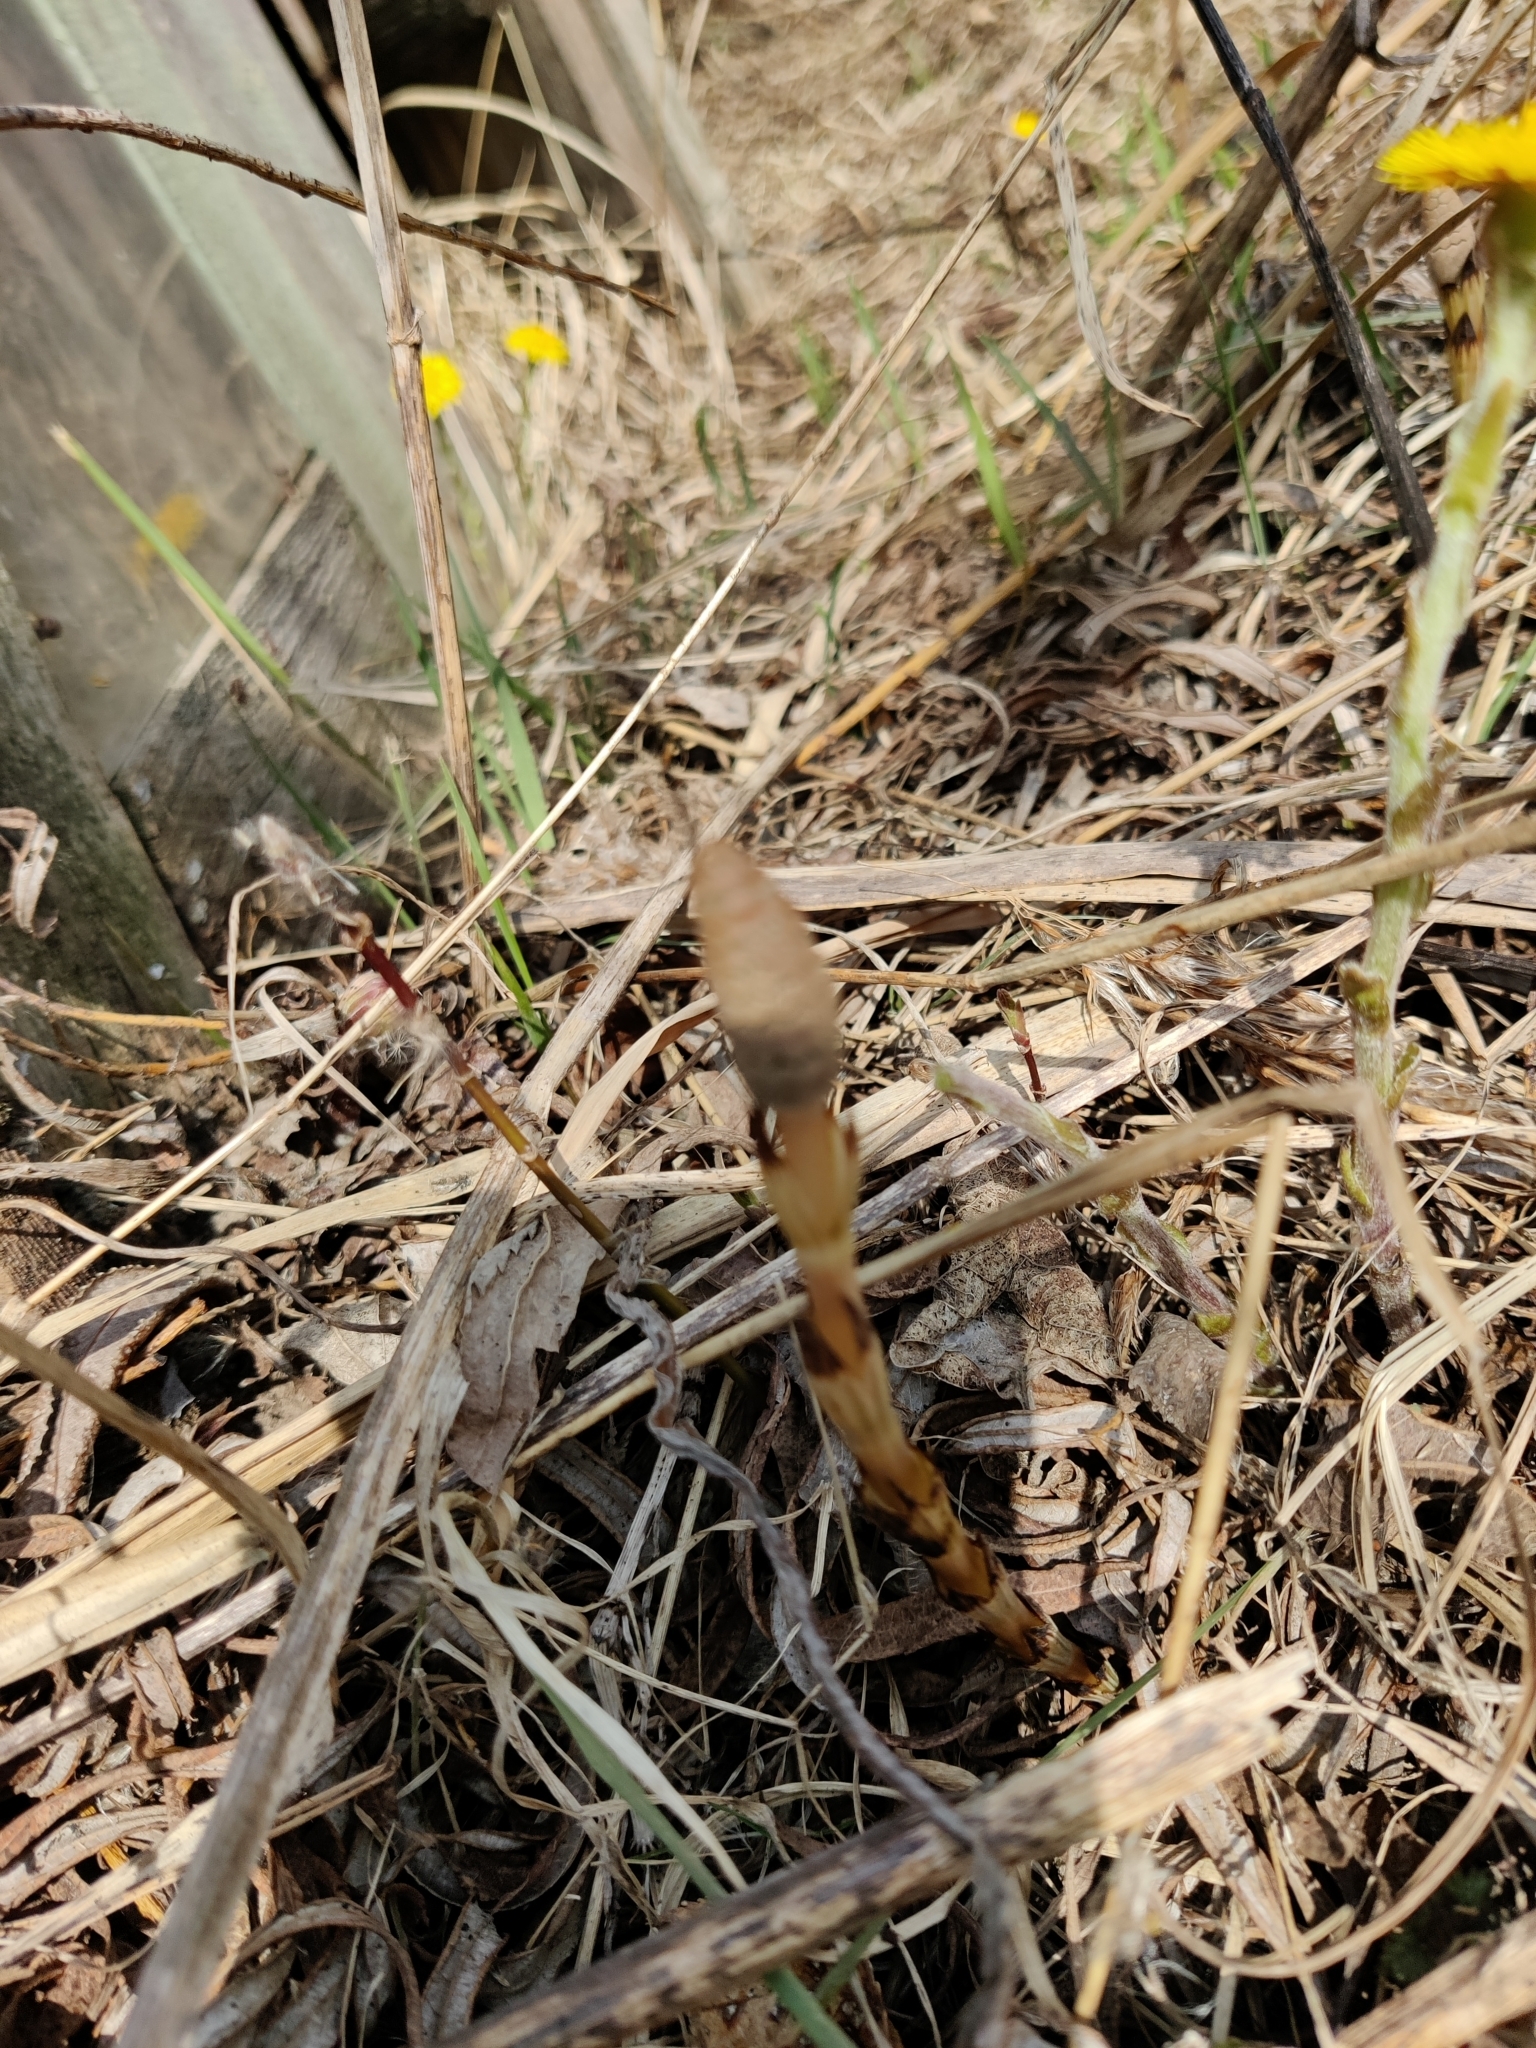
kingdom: Plantae
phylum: Tracheophyta
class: Polypodiopsida
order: Equisetales
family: Equisetaceae
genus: Equisetum
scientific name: Equisetum arvense
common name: Field horsetail
